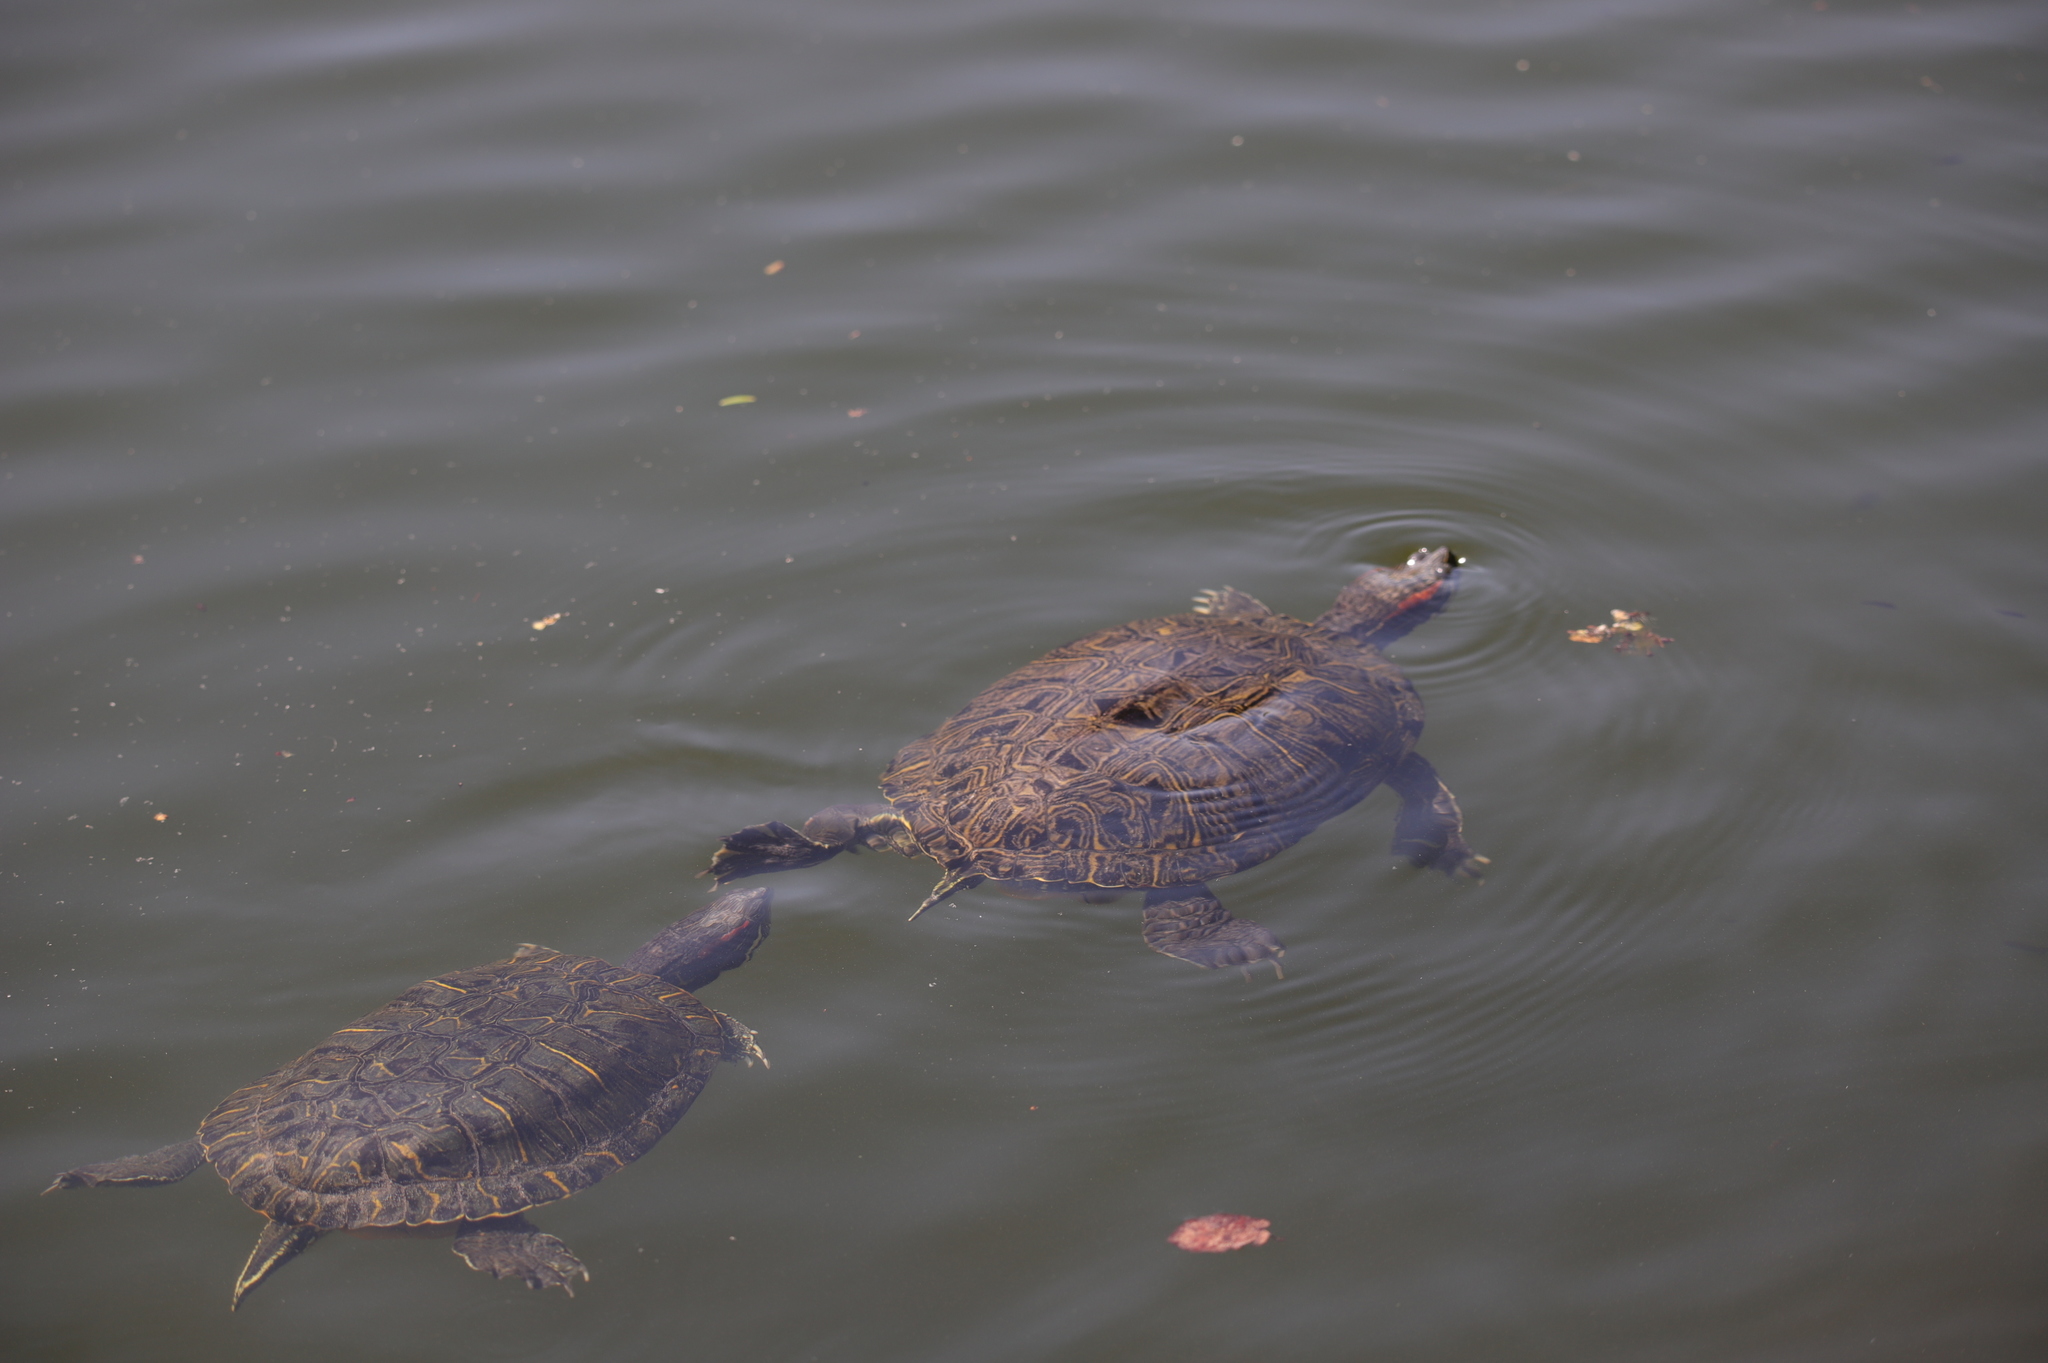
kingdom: Animalia
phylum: Chordata
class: Testudines
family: Emydidae
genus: Trachemys
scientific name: Trachemys scripta
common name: Slider
